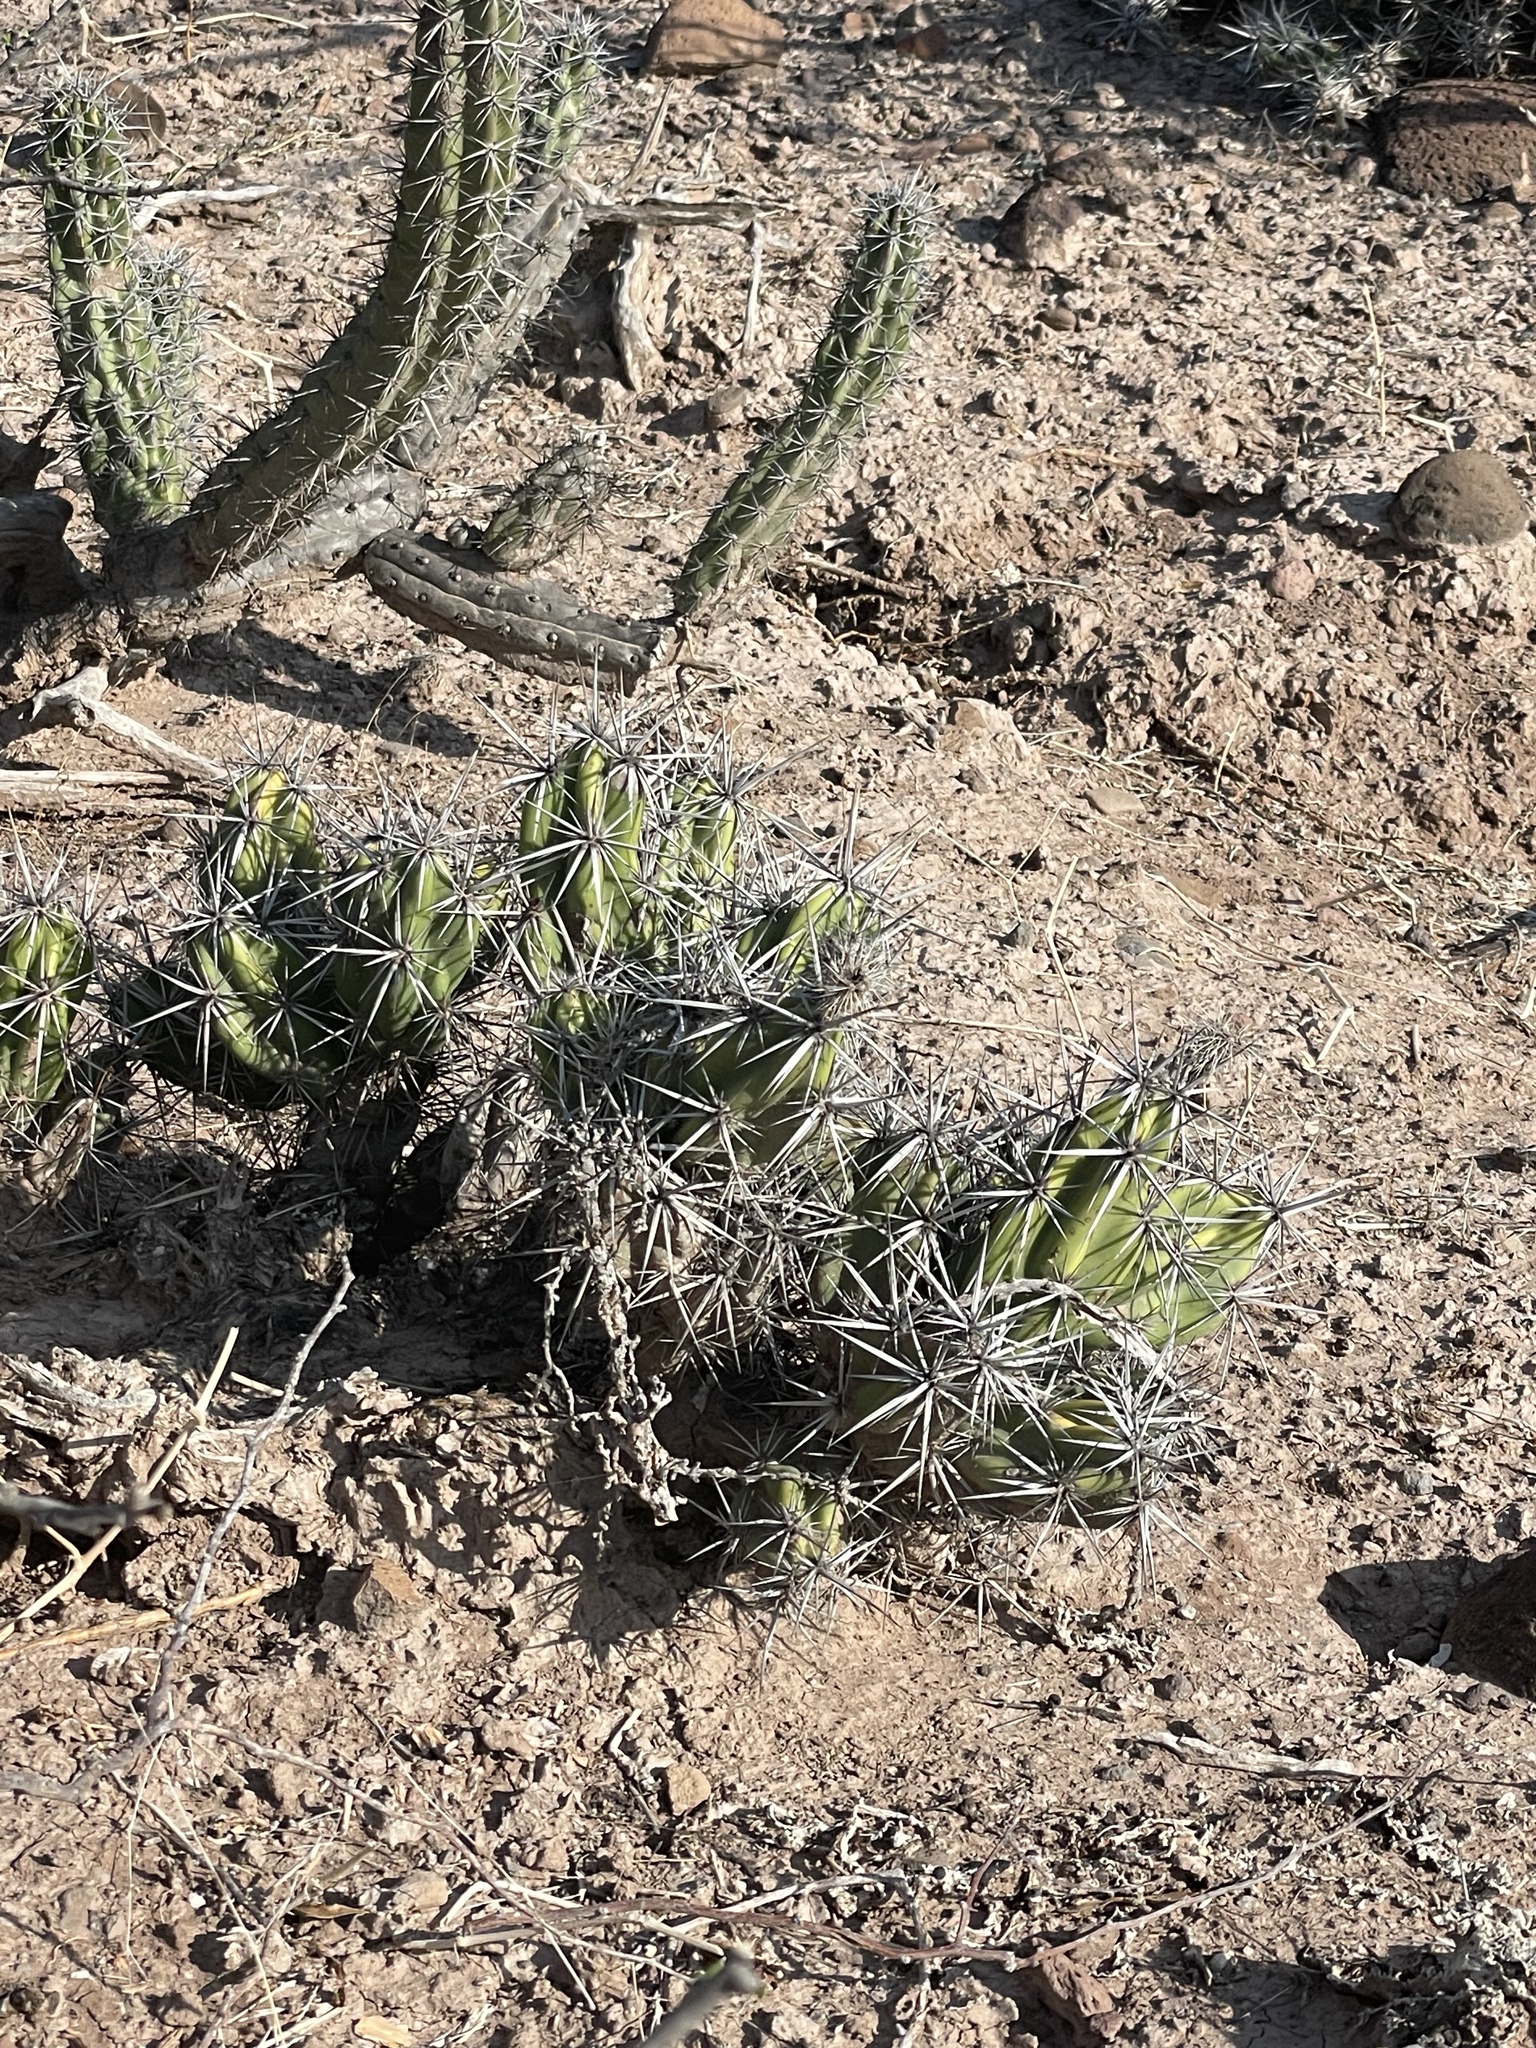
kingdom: Plantae
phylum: Tracheophyta
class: Magnoliopsida
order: Caryophyllales
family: Cactaceae
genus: Grusonia
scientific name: Grusonia invicta
